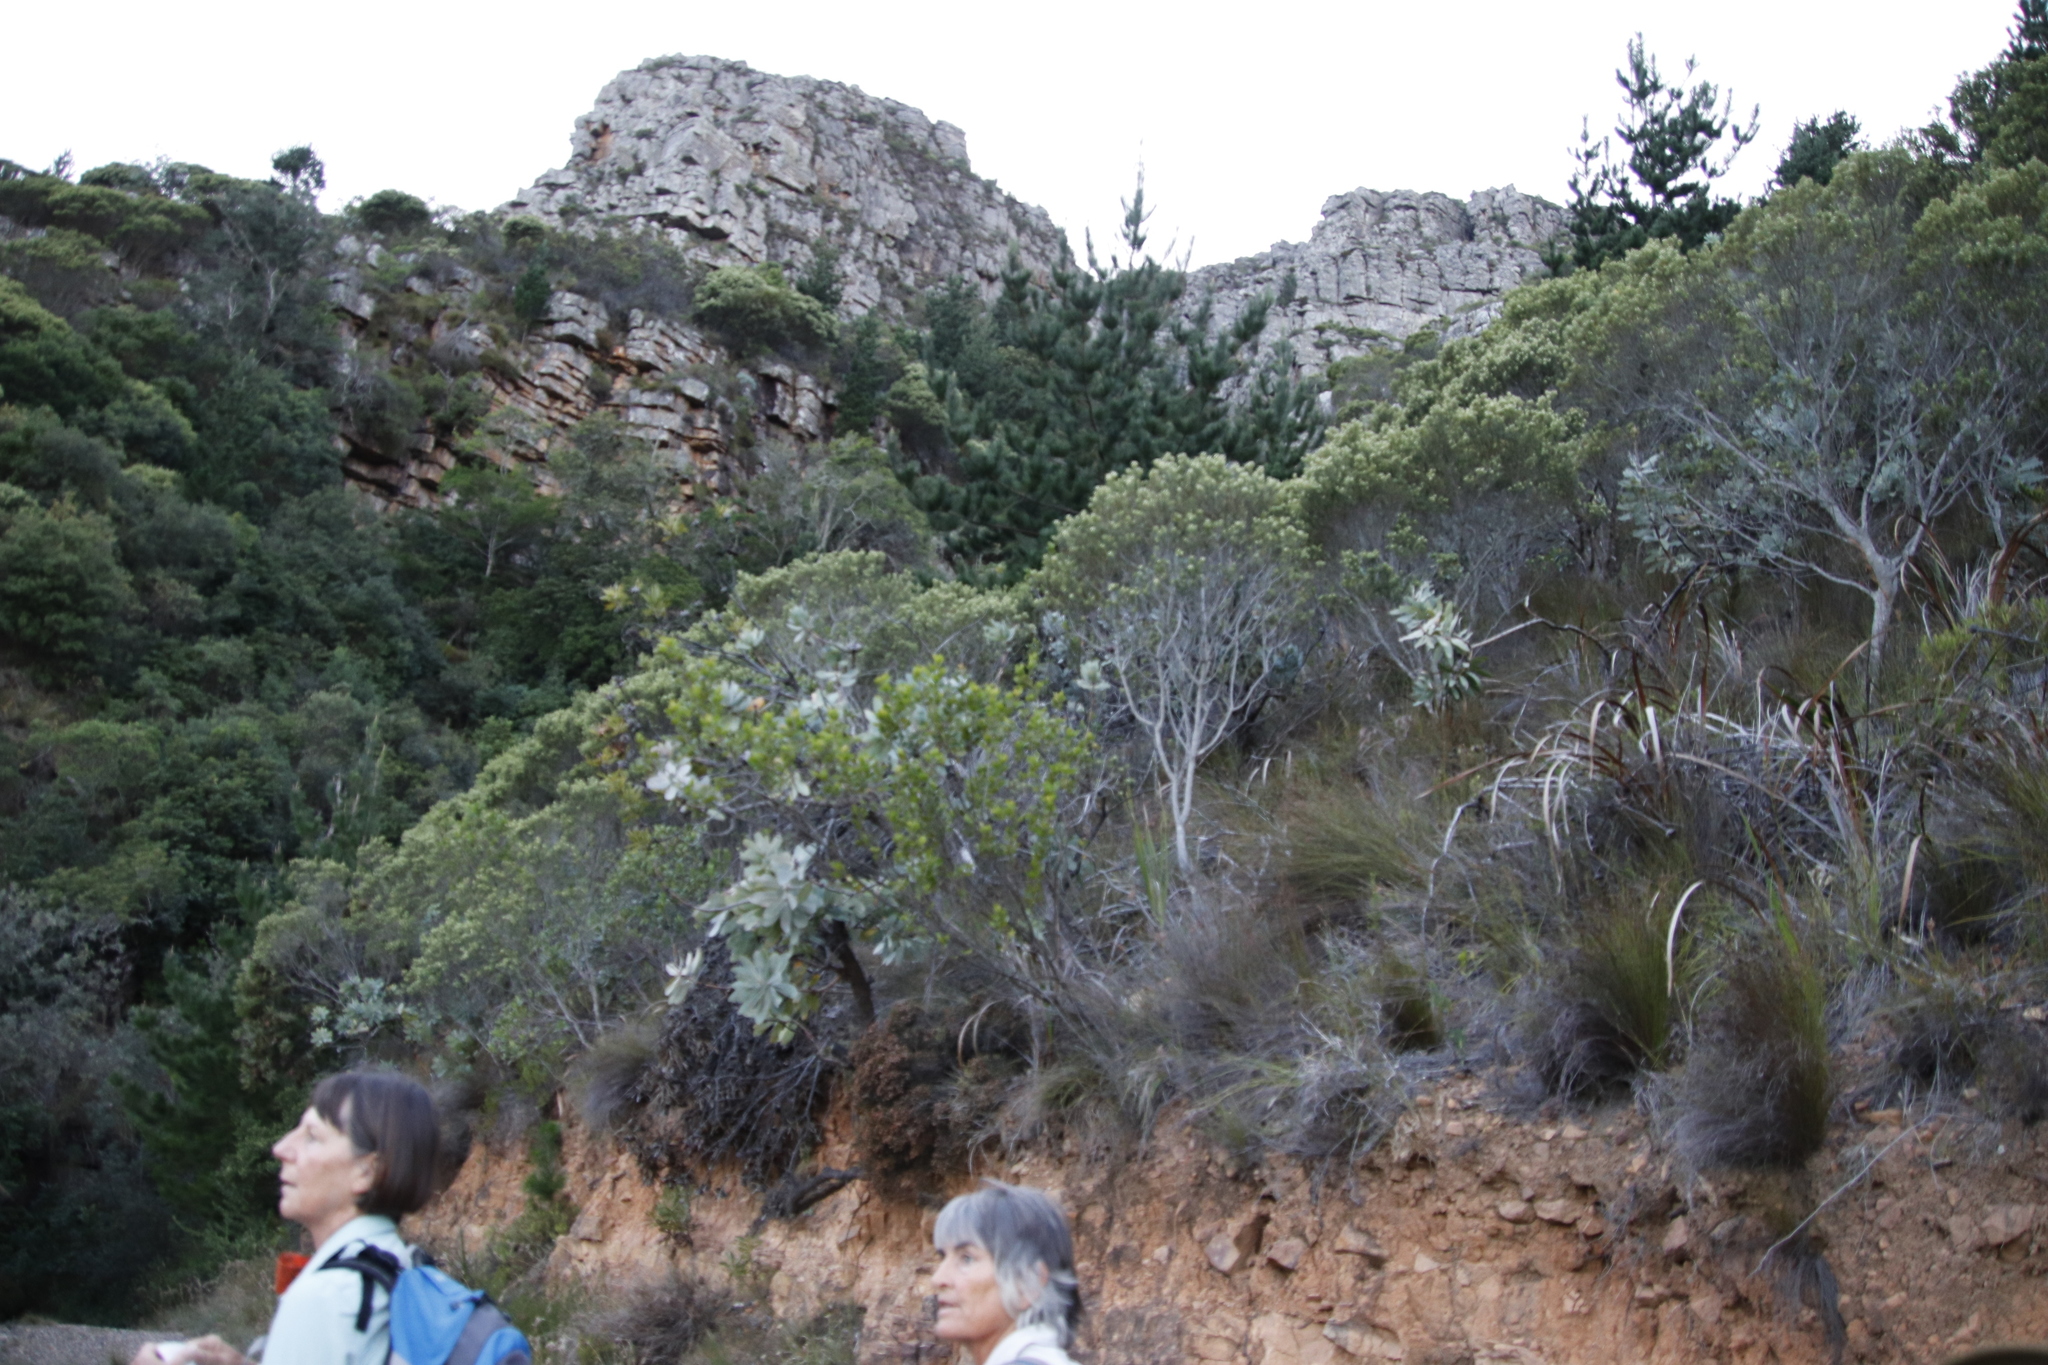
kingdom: Plantae
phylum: Tracheophyta
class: Magnoliopsida
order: Proteales
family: Proteaceae
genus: Protea
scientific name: Protea nitida
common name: Tree protea
